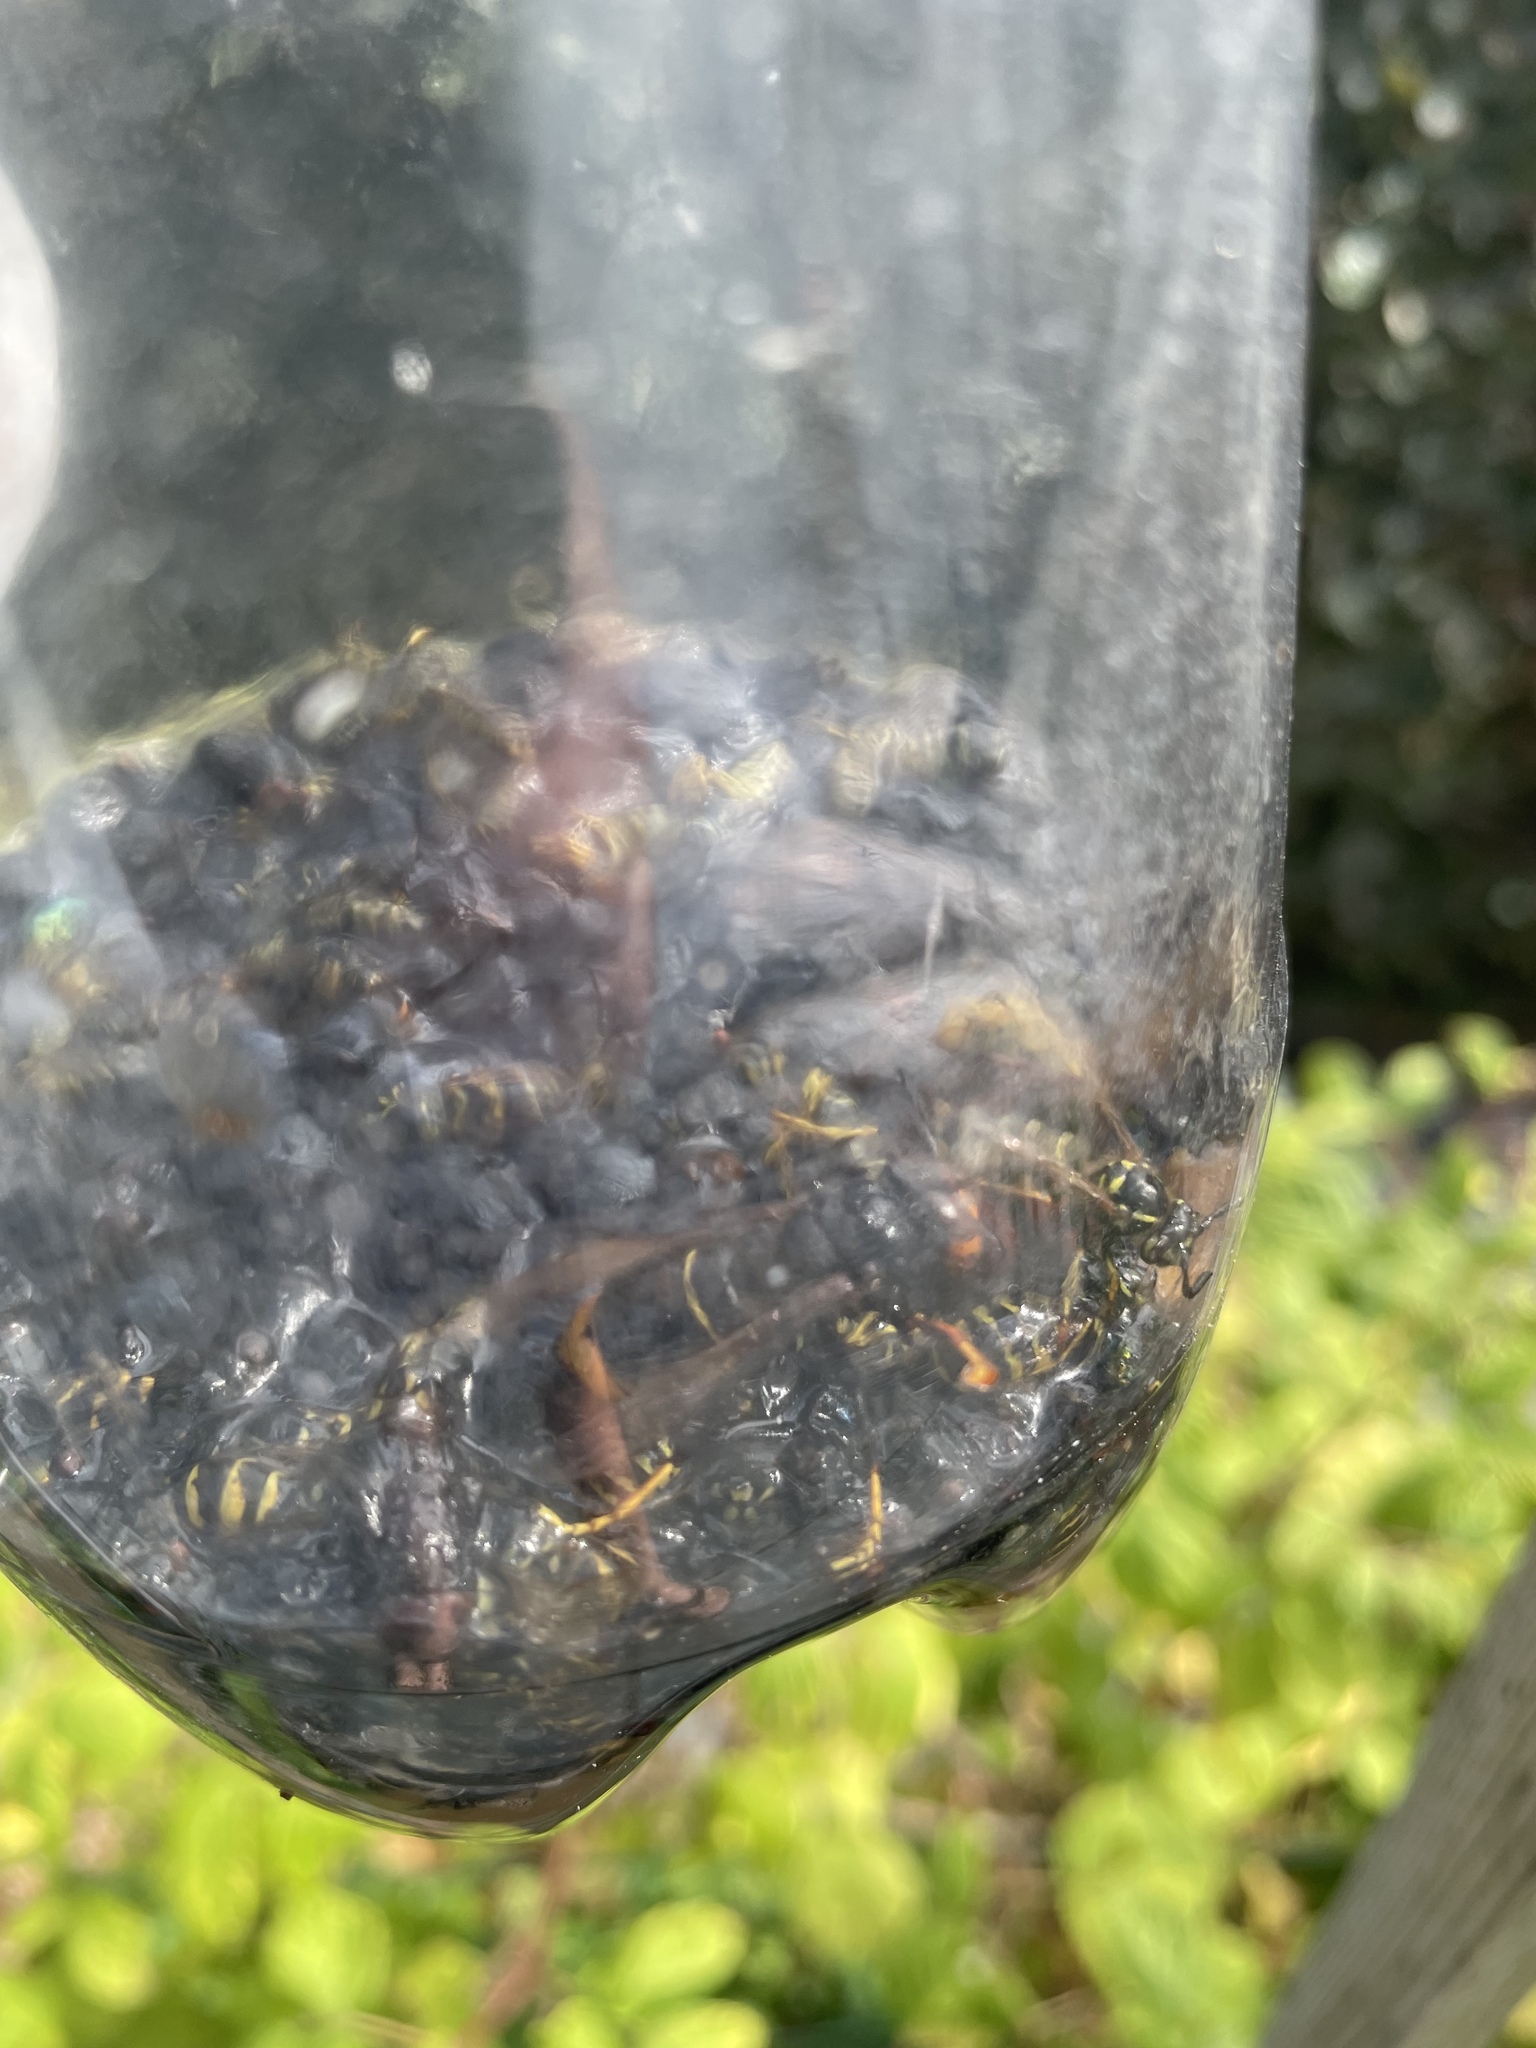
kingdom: Animalia
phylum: Arthropoda
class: Insecta
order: Hymenoptera
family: Vespidae
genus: Vespa
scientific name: Vespa velutina
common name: Asian hornet
